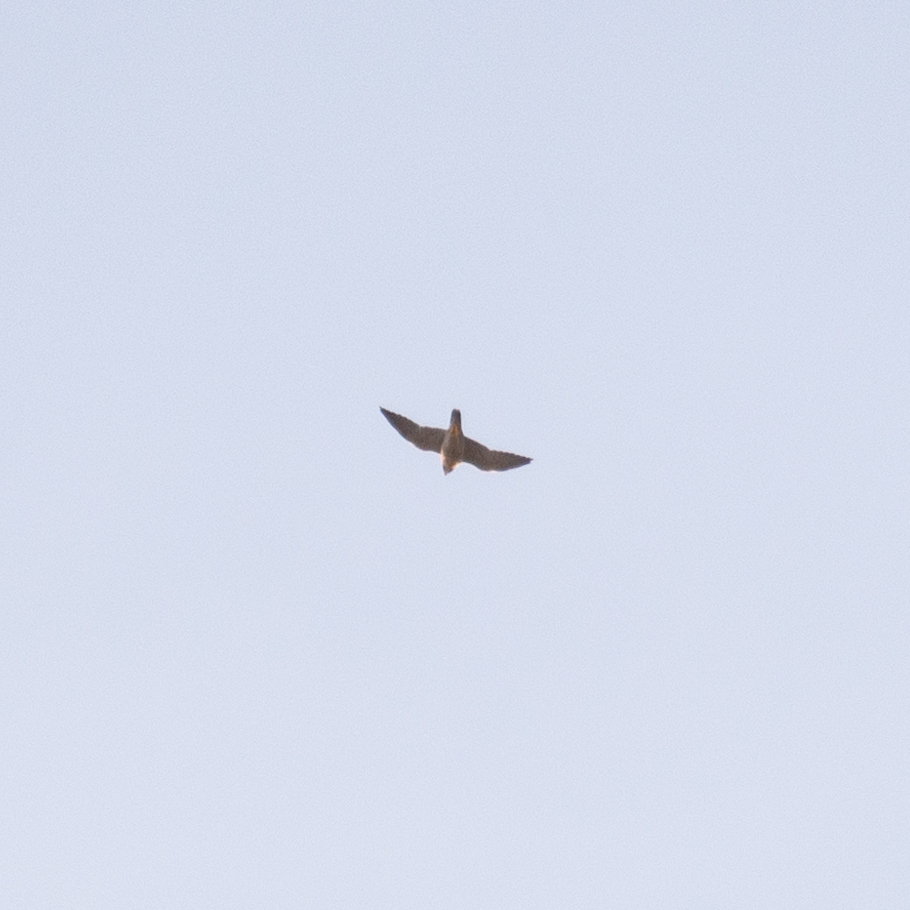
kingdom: Animalia
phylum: Chordata
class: Aves
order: Falconiformes
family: Falconidae
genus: Falco
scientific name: Falco peregrinus
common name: Peregrine falcon
